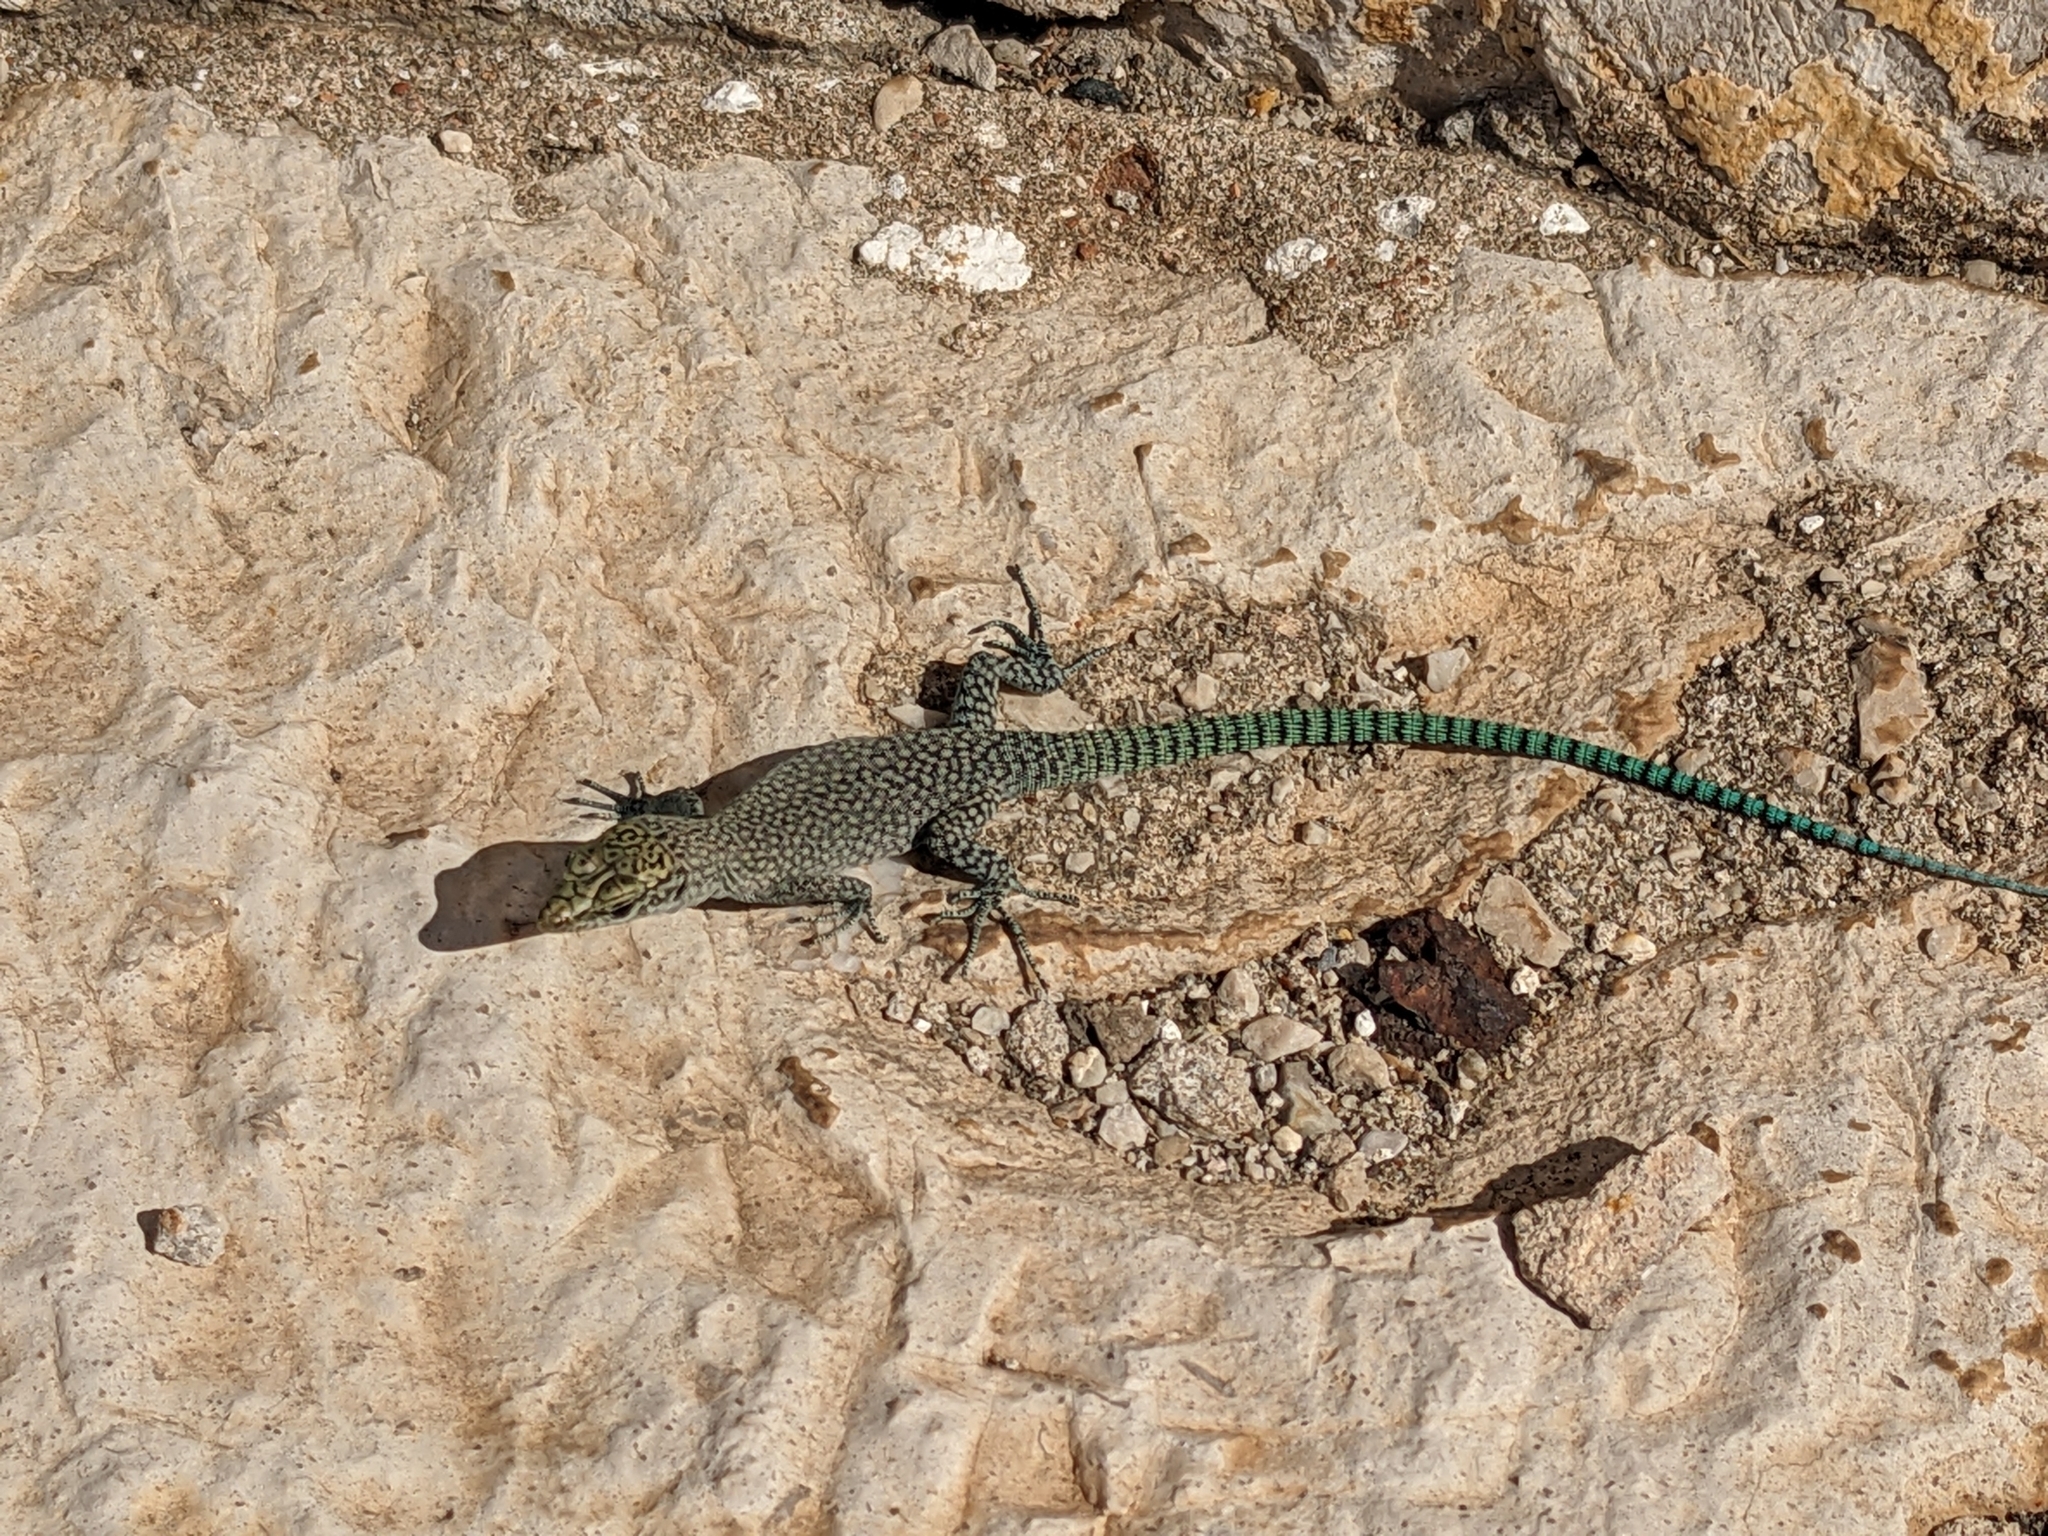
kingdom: Animalia
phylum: Chordata
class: Squamata
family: Lacertidae
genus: Dalmatolacerta
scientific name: Dalmatolacerta oxycephala
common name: Sharp-snouted rock lizard
